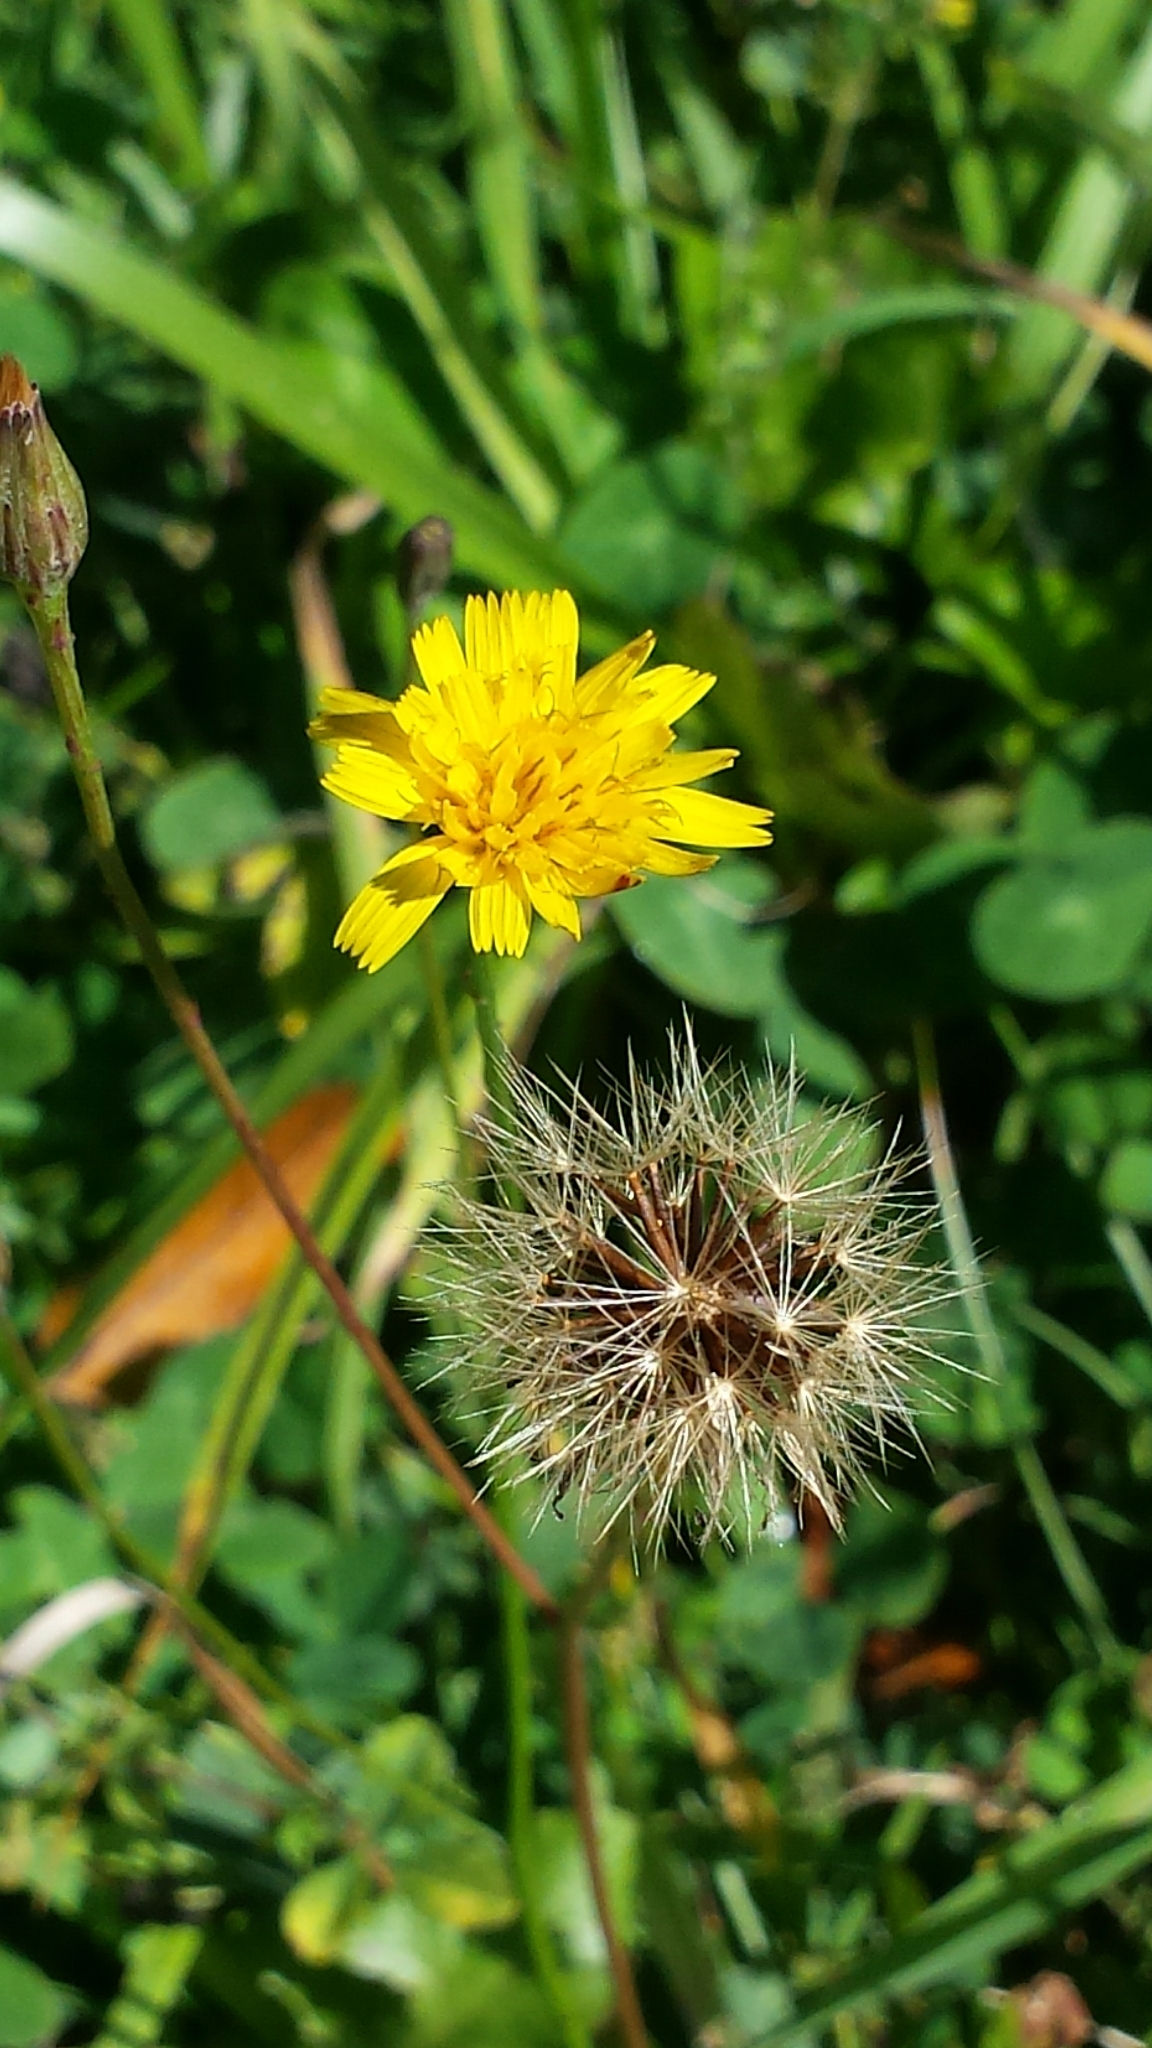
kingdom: Plantae
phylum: Tracheophyta
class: Magnoliopsida
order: Asterales
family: Asteraceae
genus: Scorzoneroides
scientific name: Scorzoneroides autumnalis
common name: Autumn hawkbit
